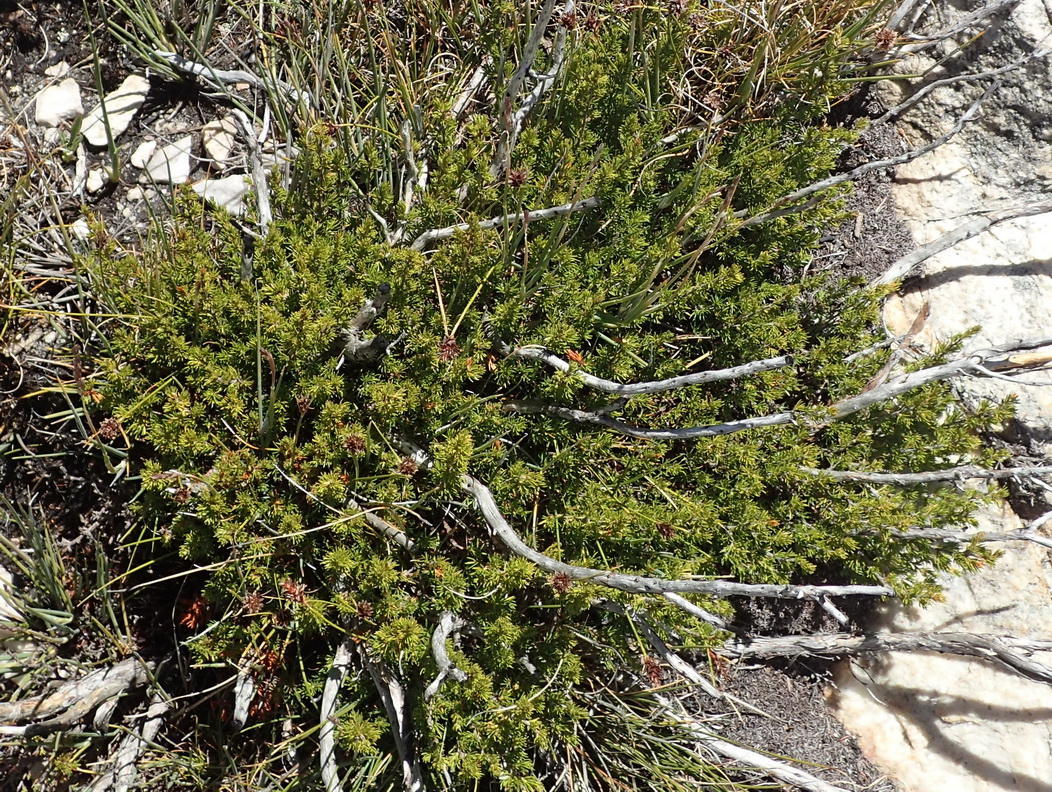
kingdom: Plantae
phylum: Tracheophyta
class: Magnoliopsida
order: Rosales
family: Rosaceae
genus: Cliffortia
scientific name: Cliffortia tuberculata
